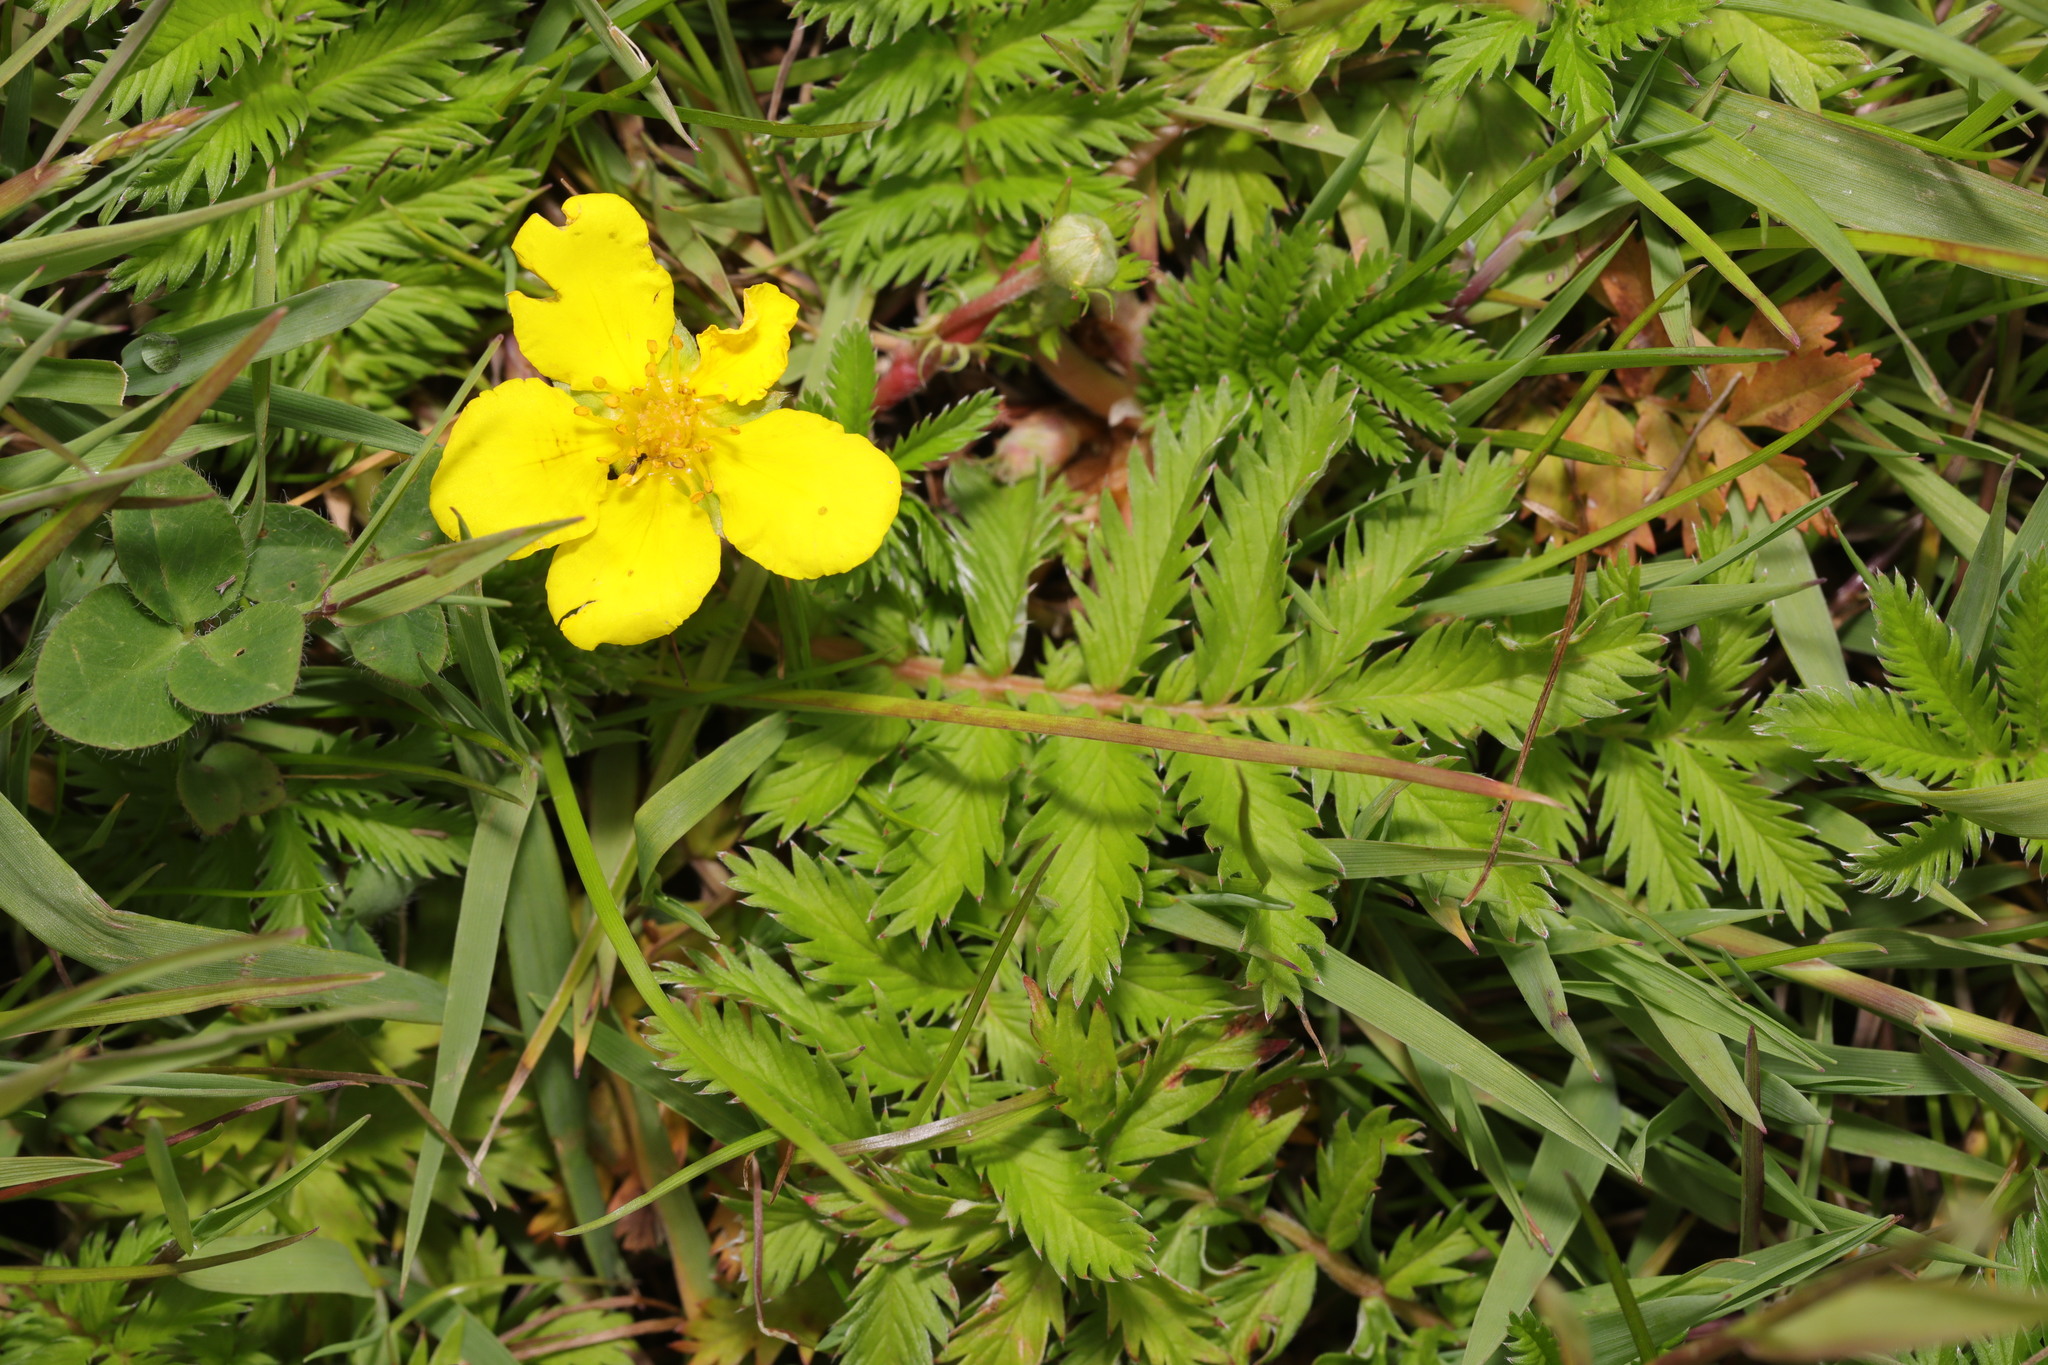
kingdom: Plantae
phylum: Tracheophyta
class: Magnoliopsida
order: Rosales
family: Rosaceae
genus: Argentina
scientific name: Argentina anserina
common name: Common silverweed
